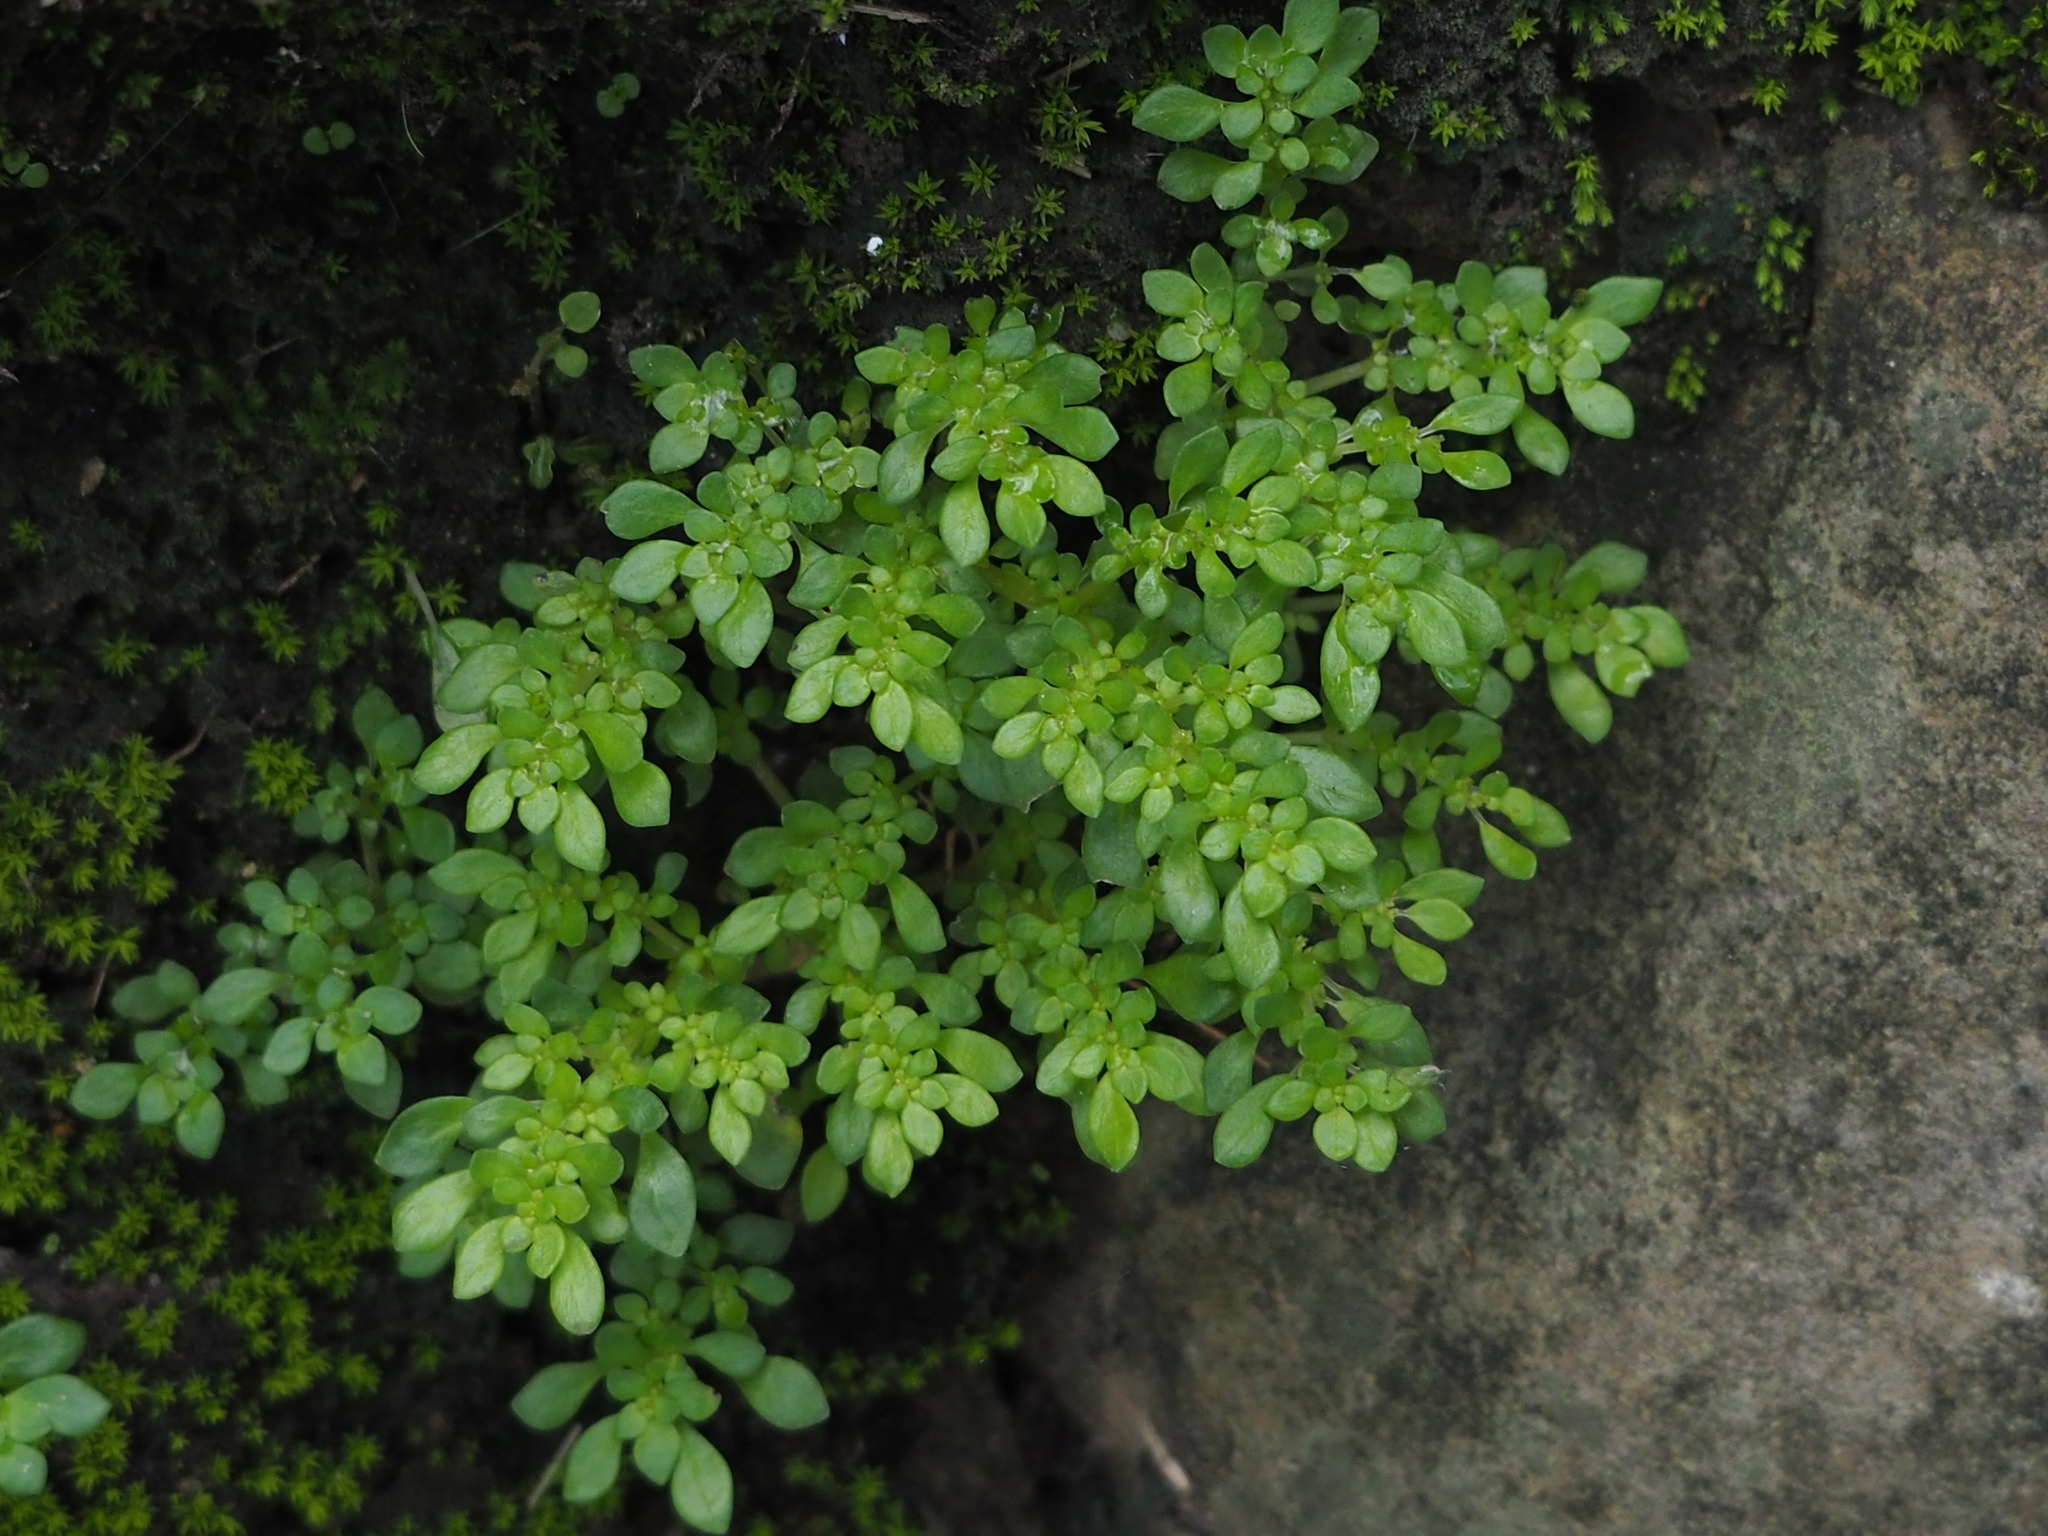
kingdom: Plantae
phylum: Tracheophyta
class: Magnoliopsida
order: Rosales
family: Urticaceae
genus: Pilea
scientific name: Pilea microphylla
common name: Artillery-plant
